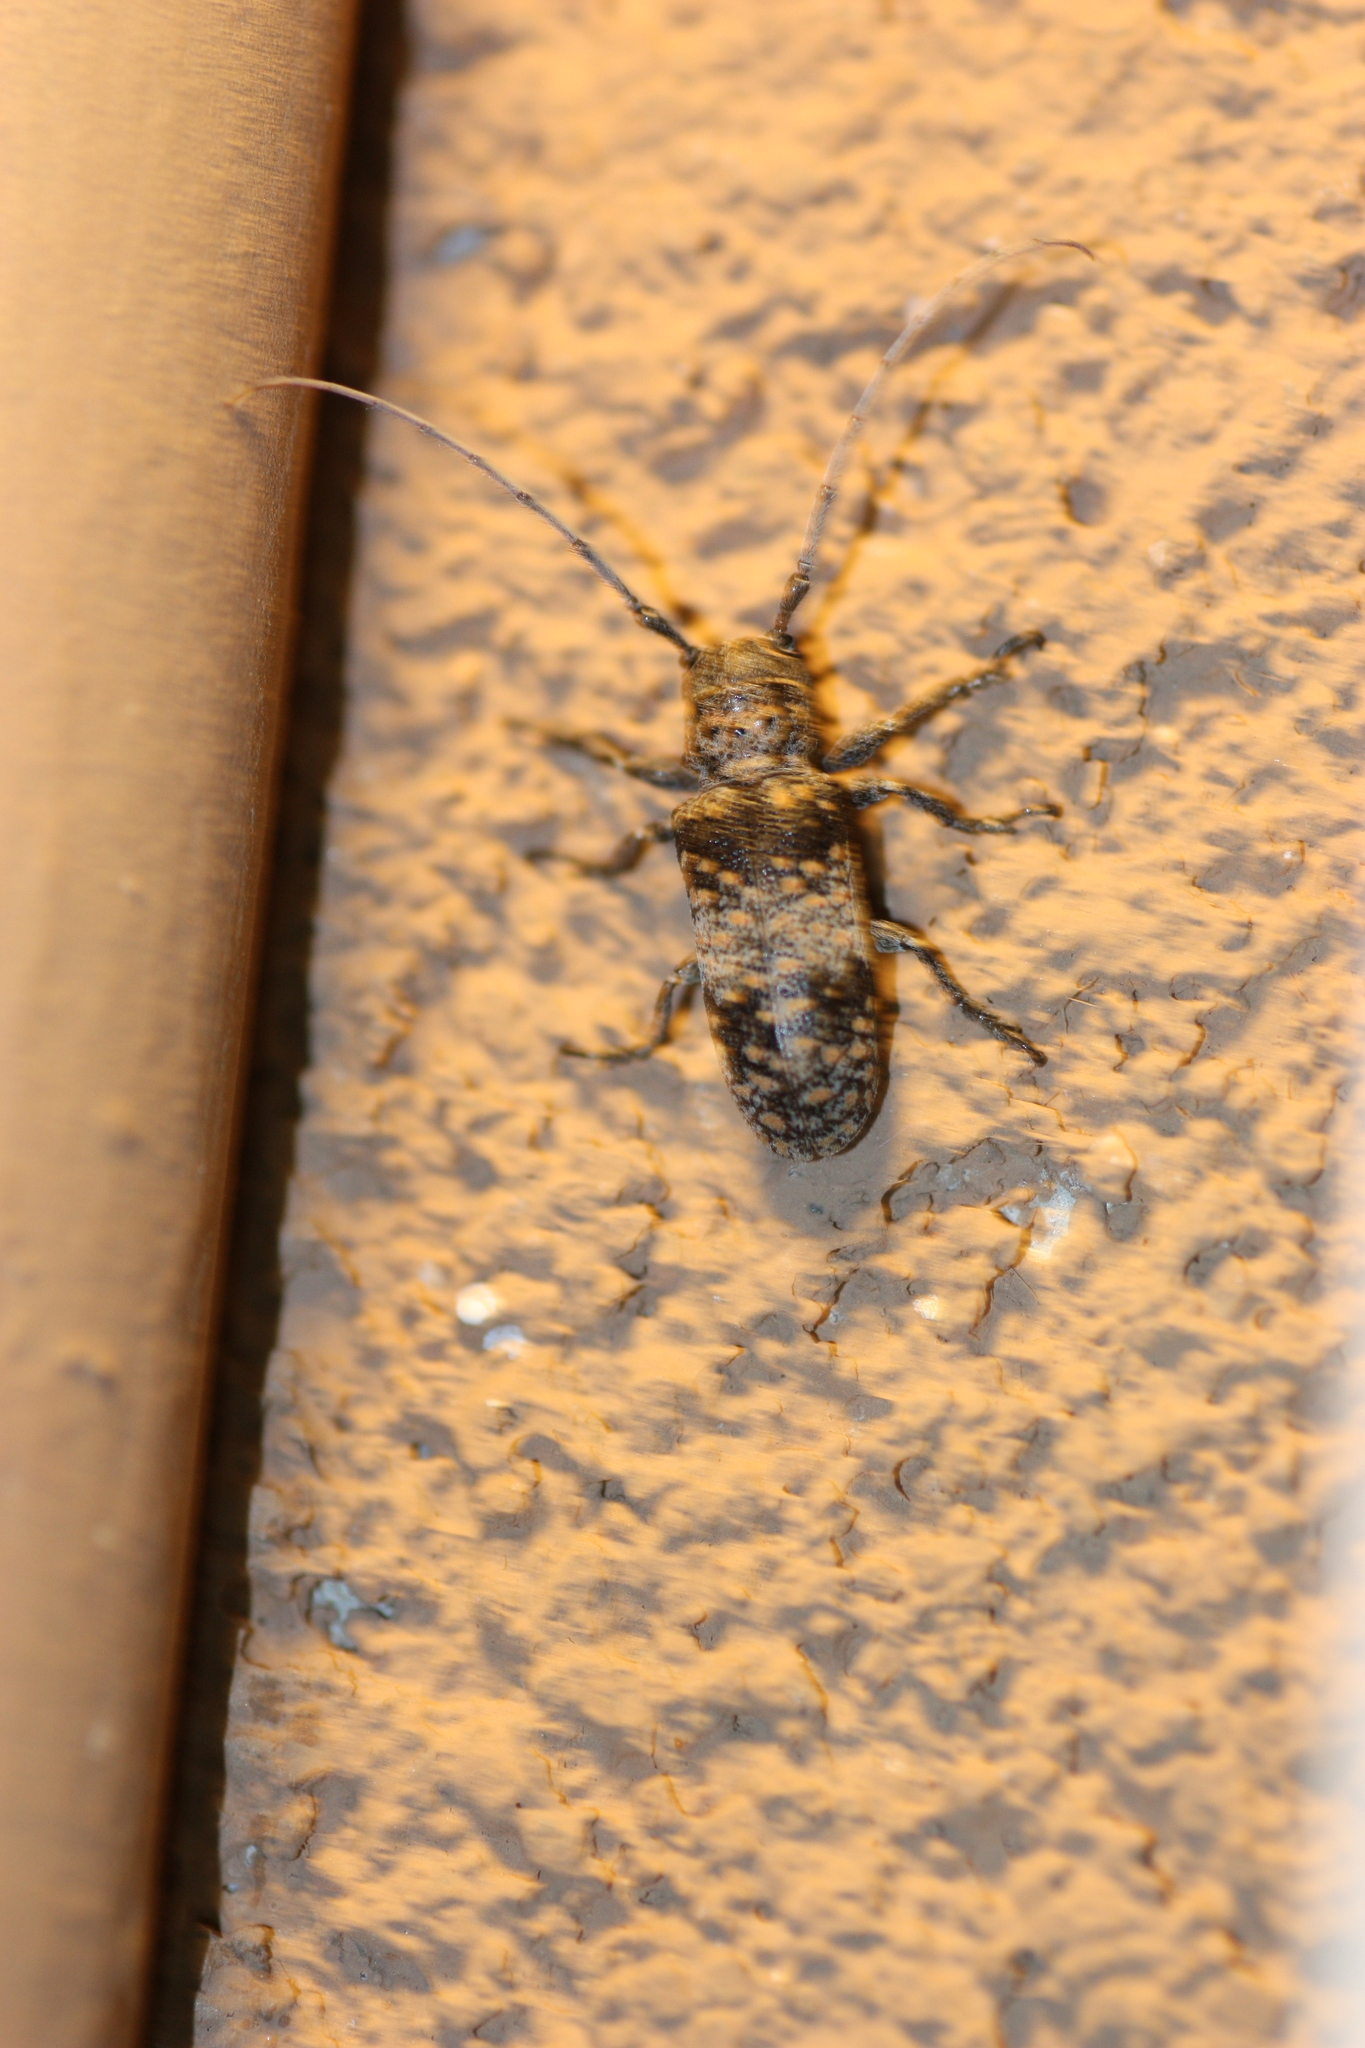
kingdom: Animalia
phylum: Arthropoda
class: Insecta
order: Coleoptera
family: Cerambycidae
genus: Oncideres
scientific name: Oncideres rhodosticta
